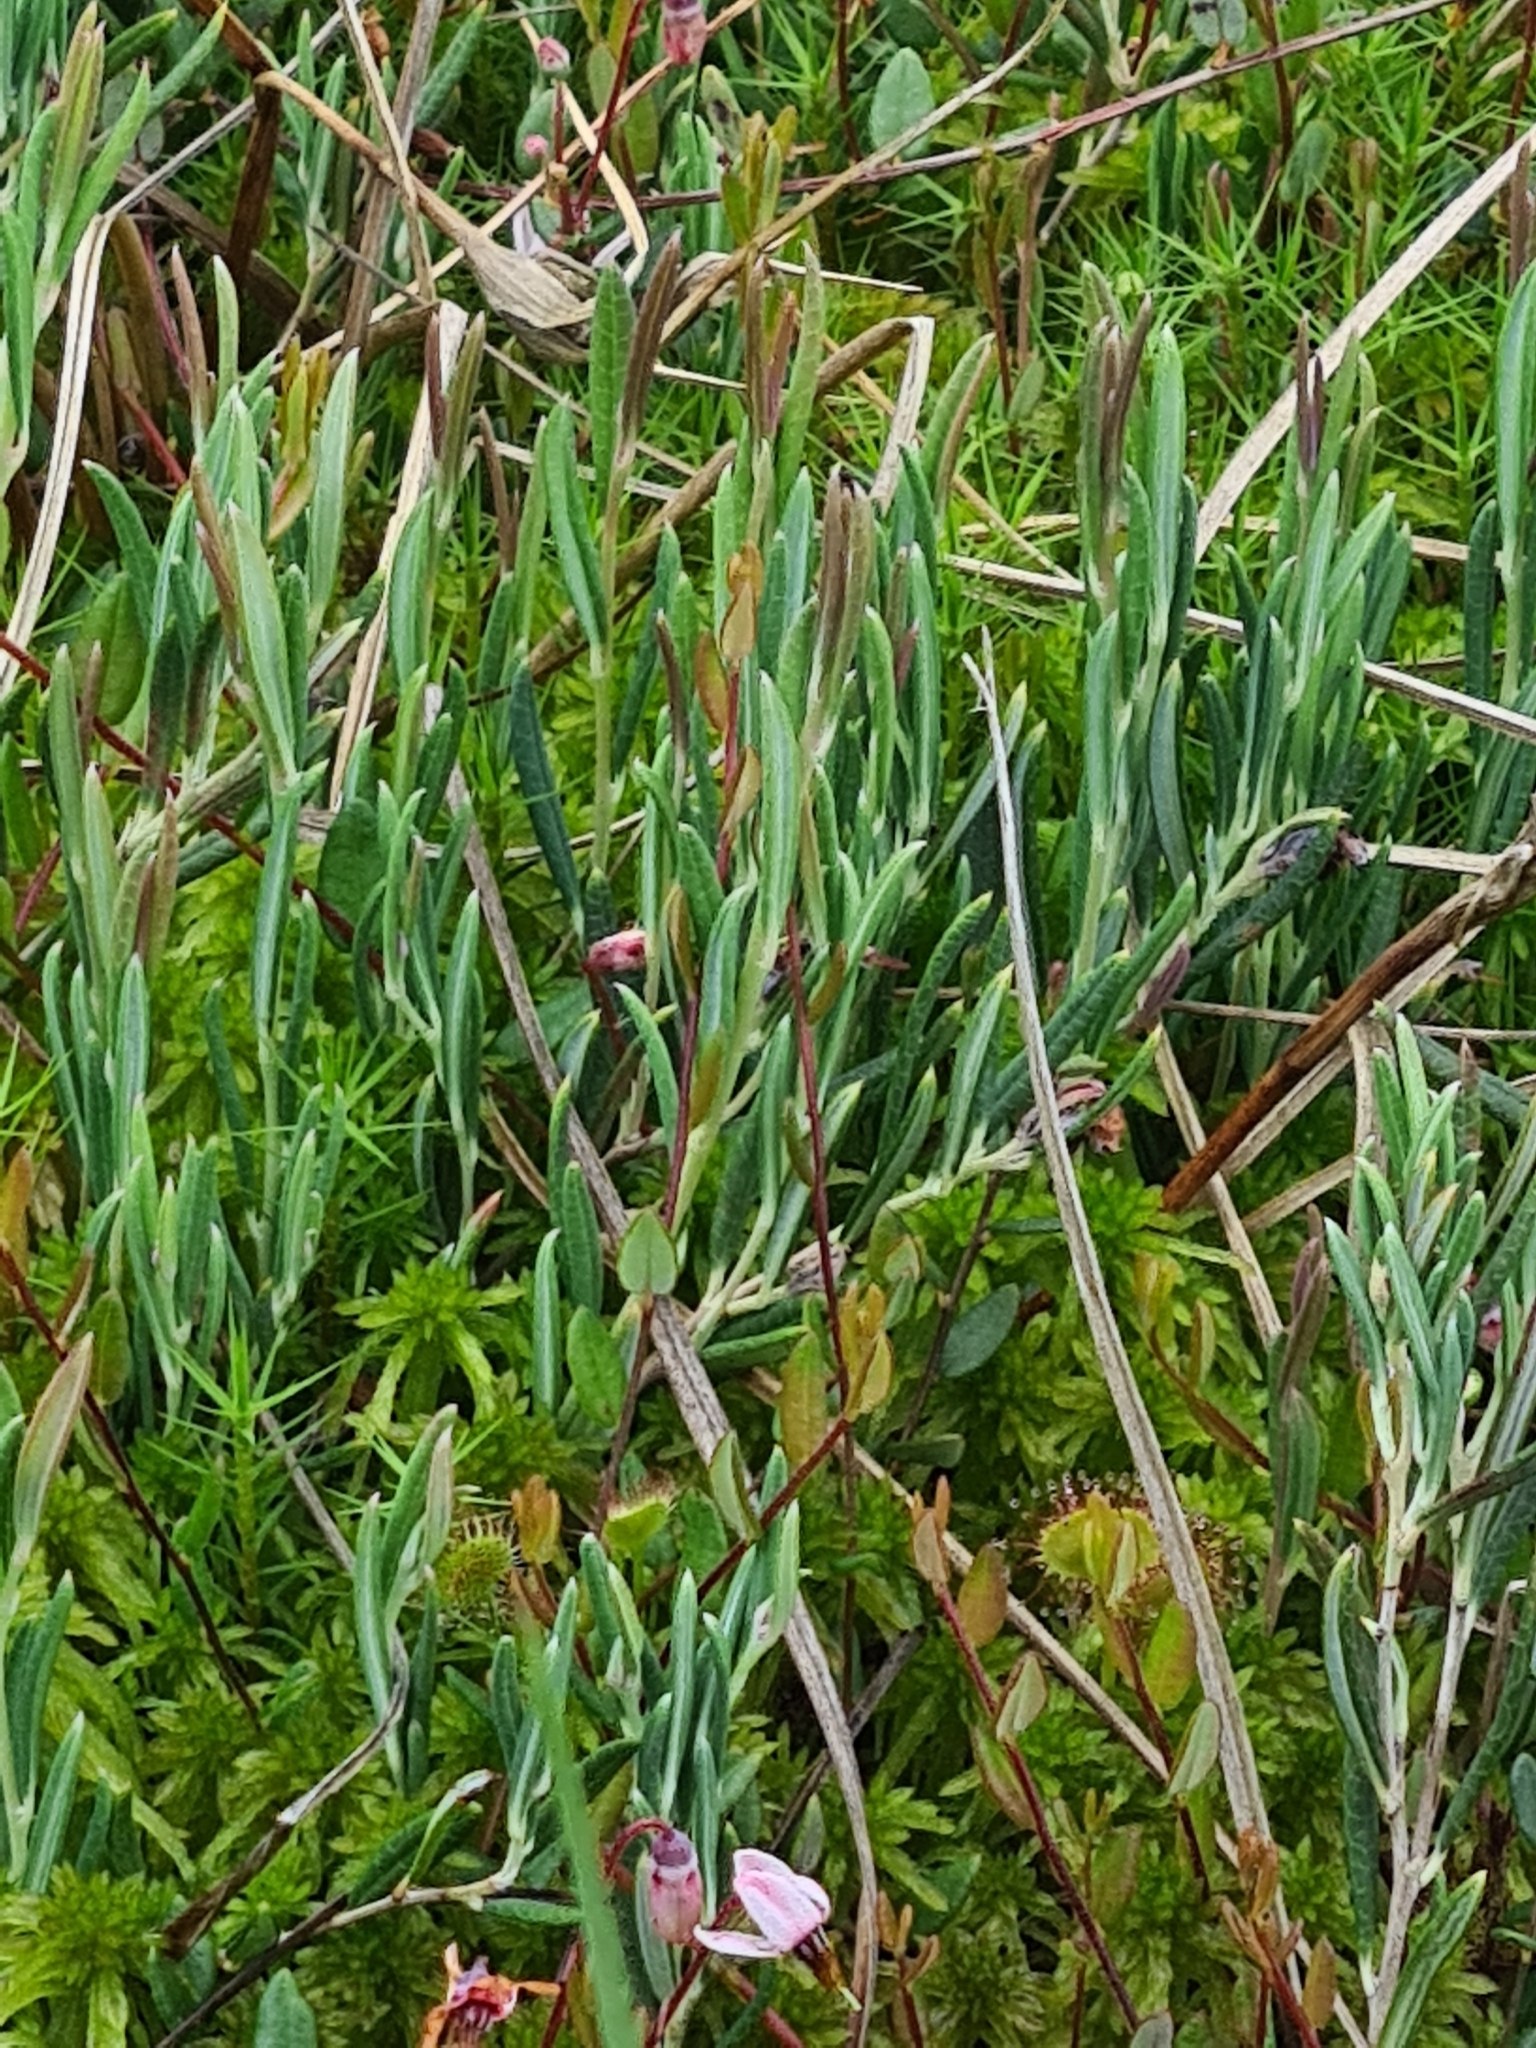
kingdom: Plantae
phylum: Tracheophyta
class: Magnoliopsida
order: Ericales
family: Ericaceae
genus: Andromeda
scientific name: Andromeda polifolia
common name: Bog-rosemary
